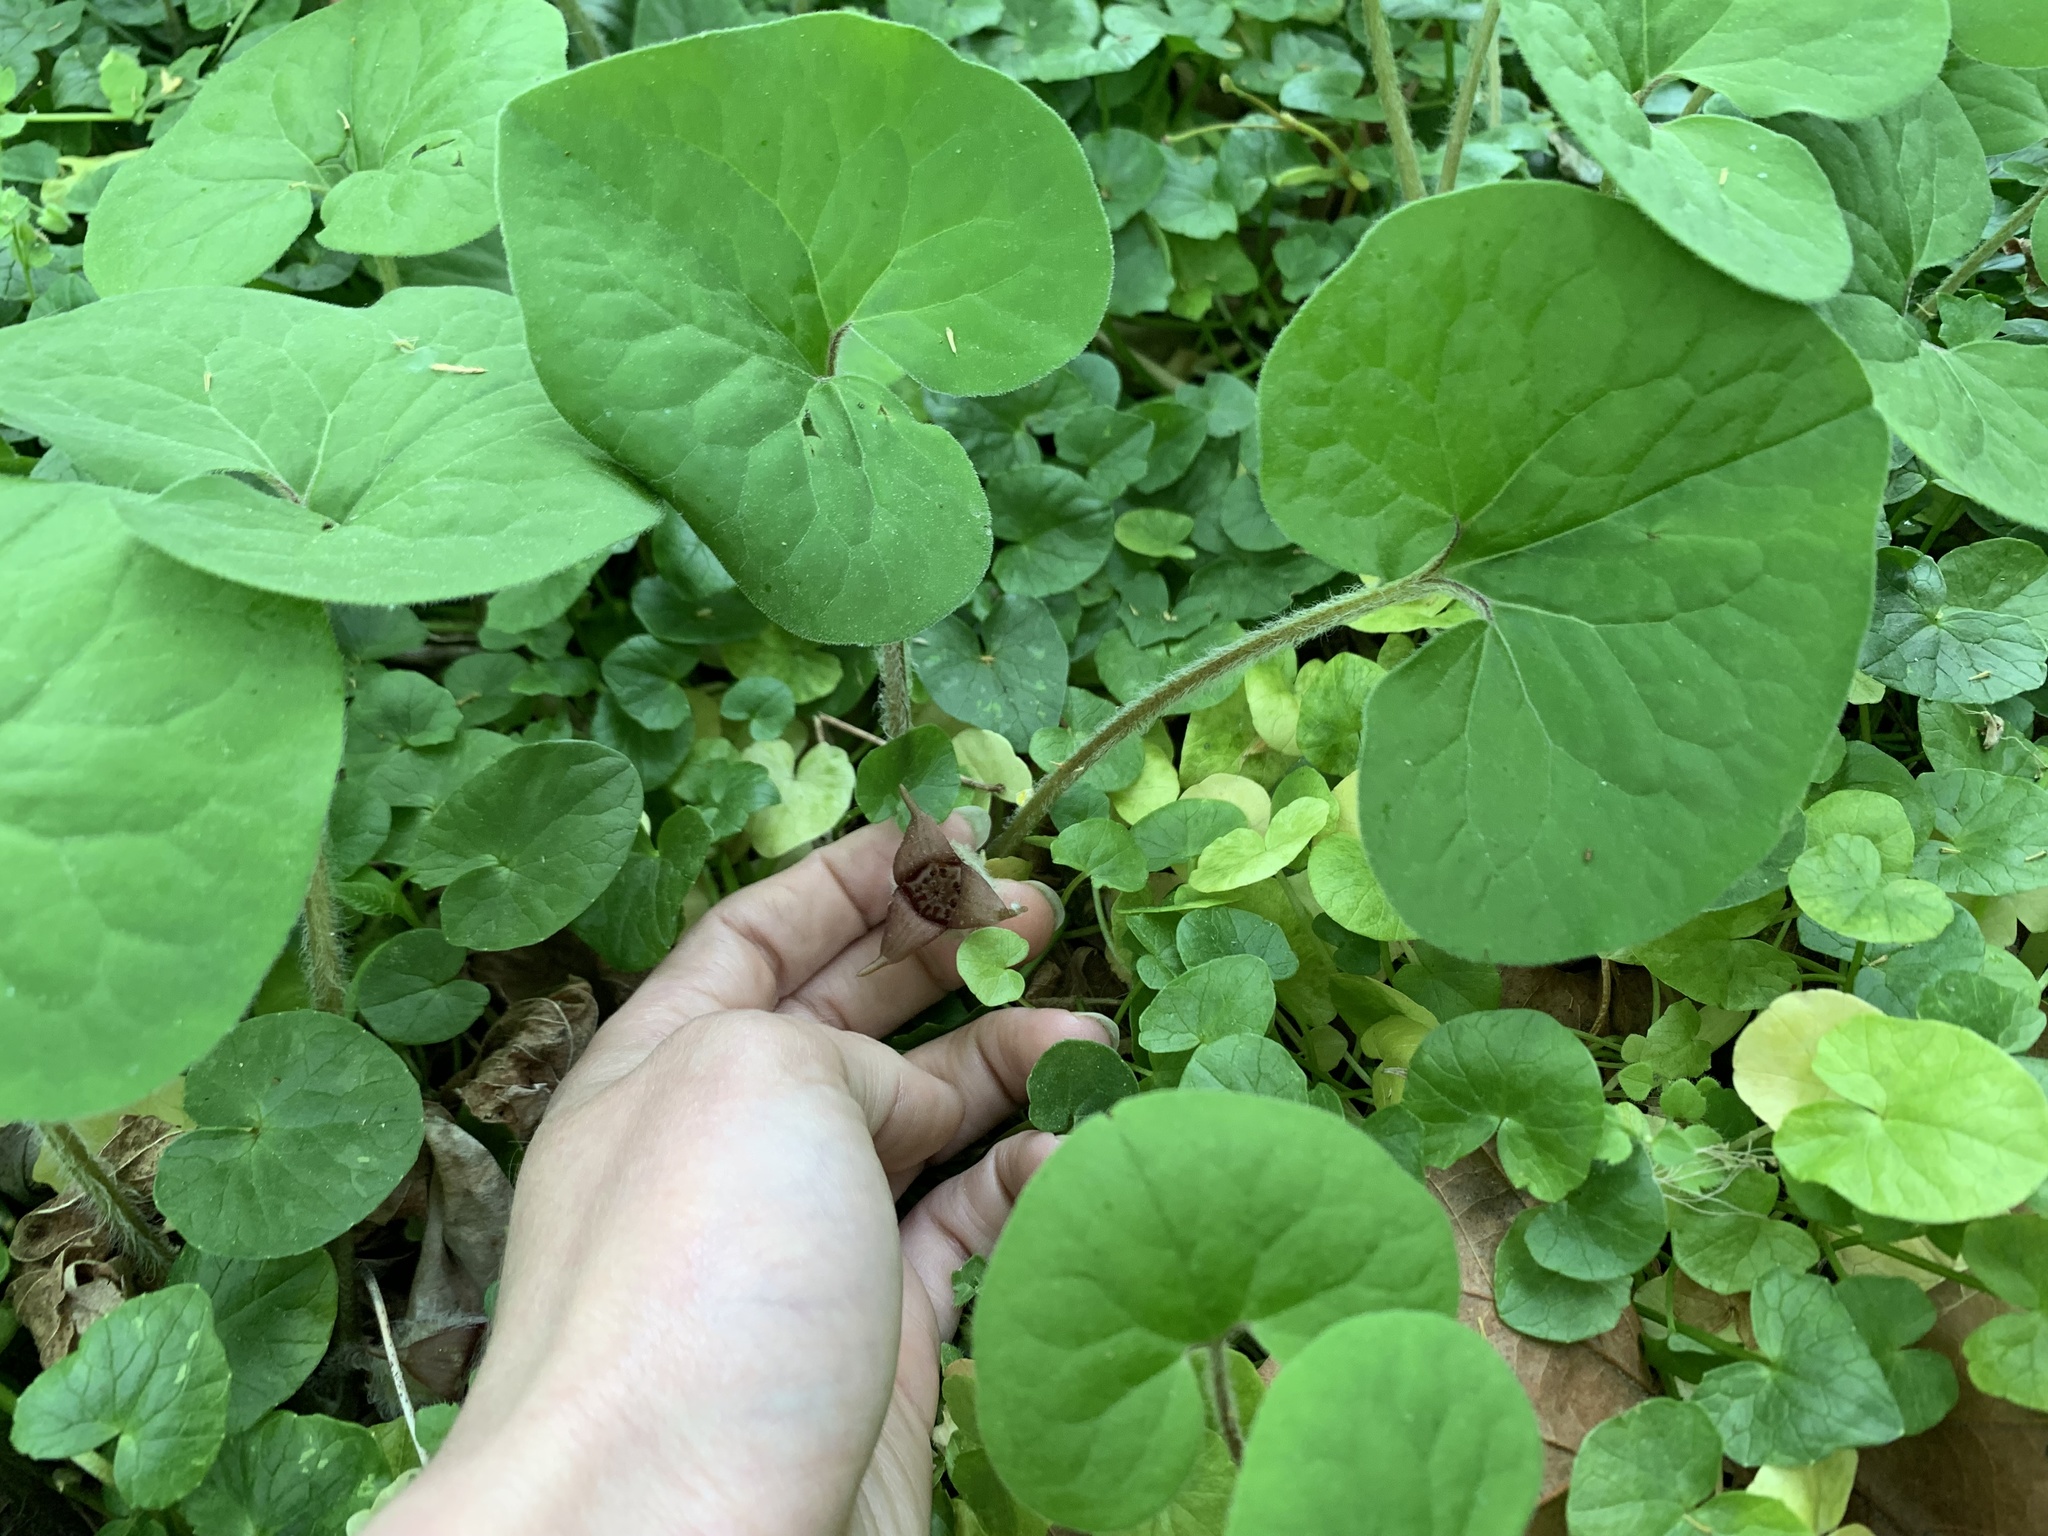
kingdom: Plantae
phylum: Tracheophyta
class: Magnoliopsida
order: Piperales
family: Aristolochiaceae
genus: Asarum
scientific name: Asarum canadense
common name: Wild ginger
